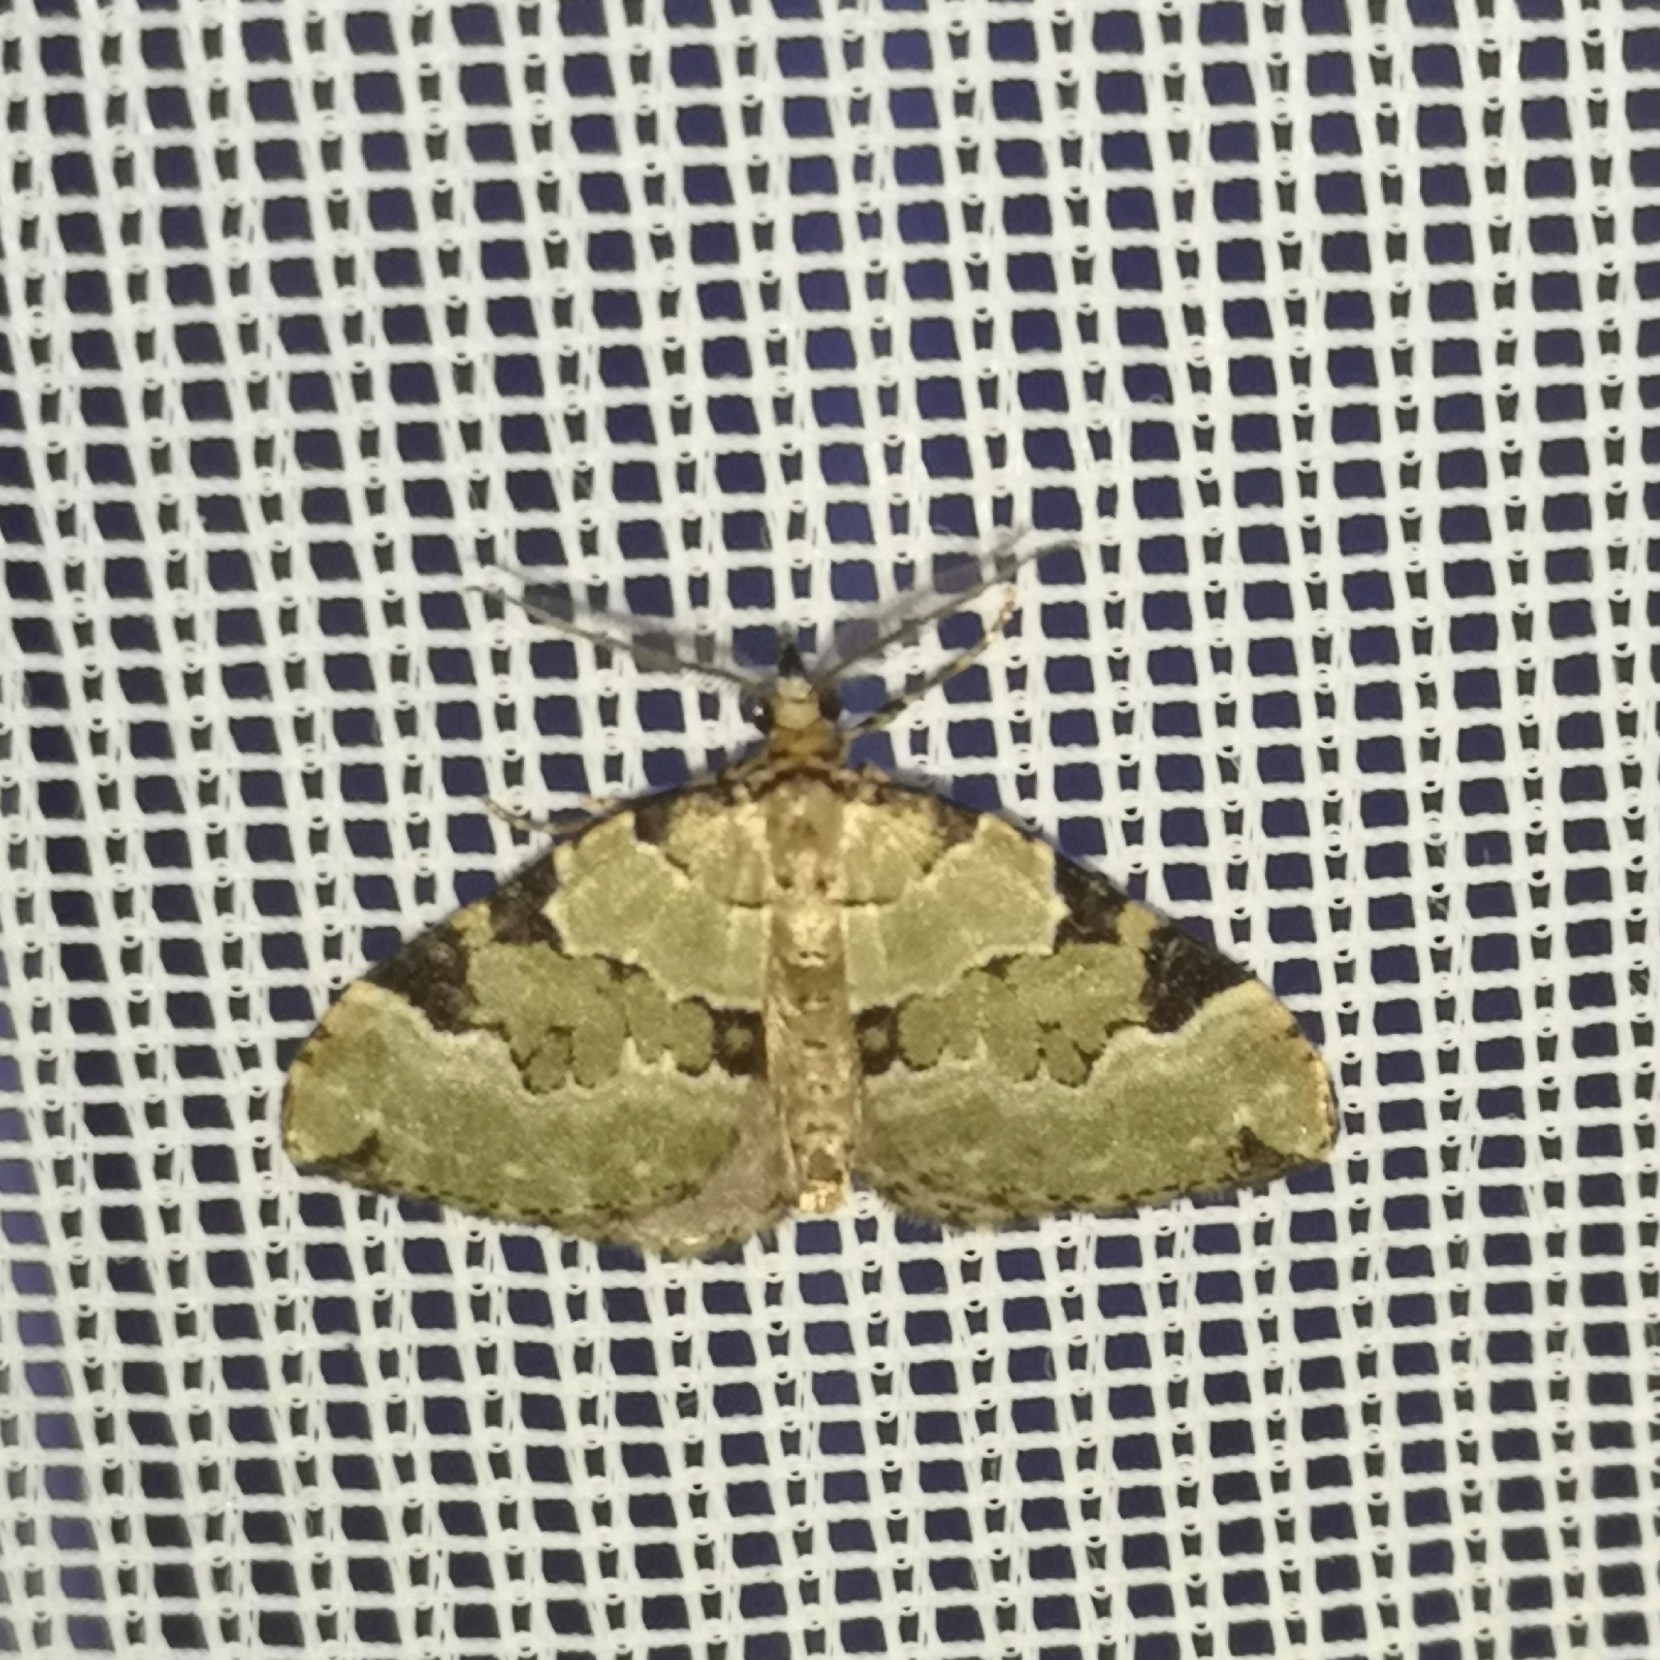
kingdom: Animalia
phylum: Arthropoda
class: Insecta
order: Lepidoptera
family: Geometridae
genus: Colostygia
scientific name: Colostygia pectinataria
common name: Green carpet
